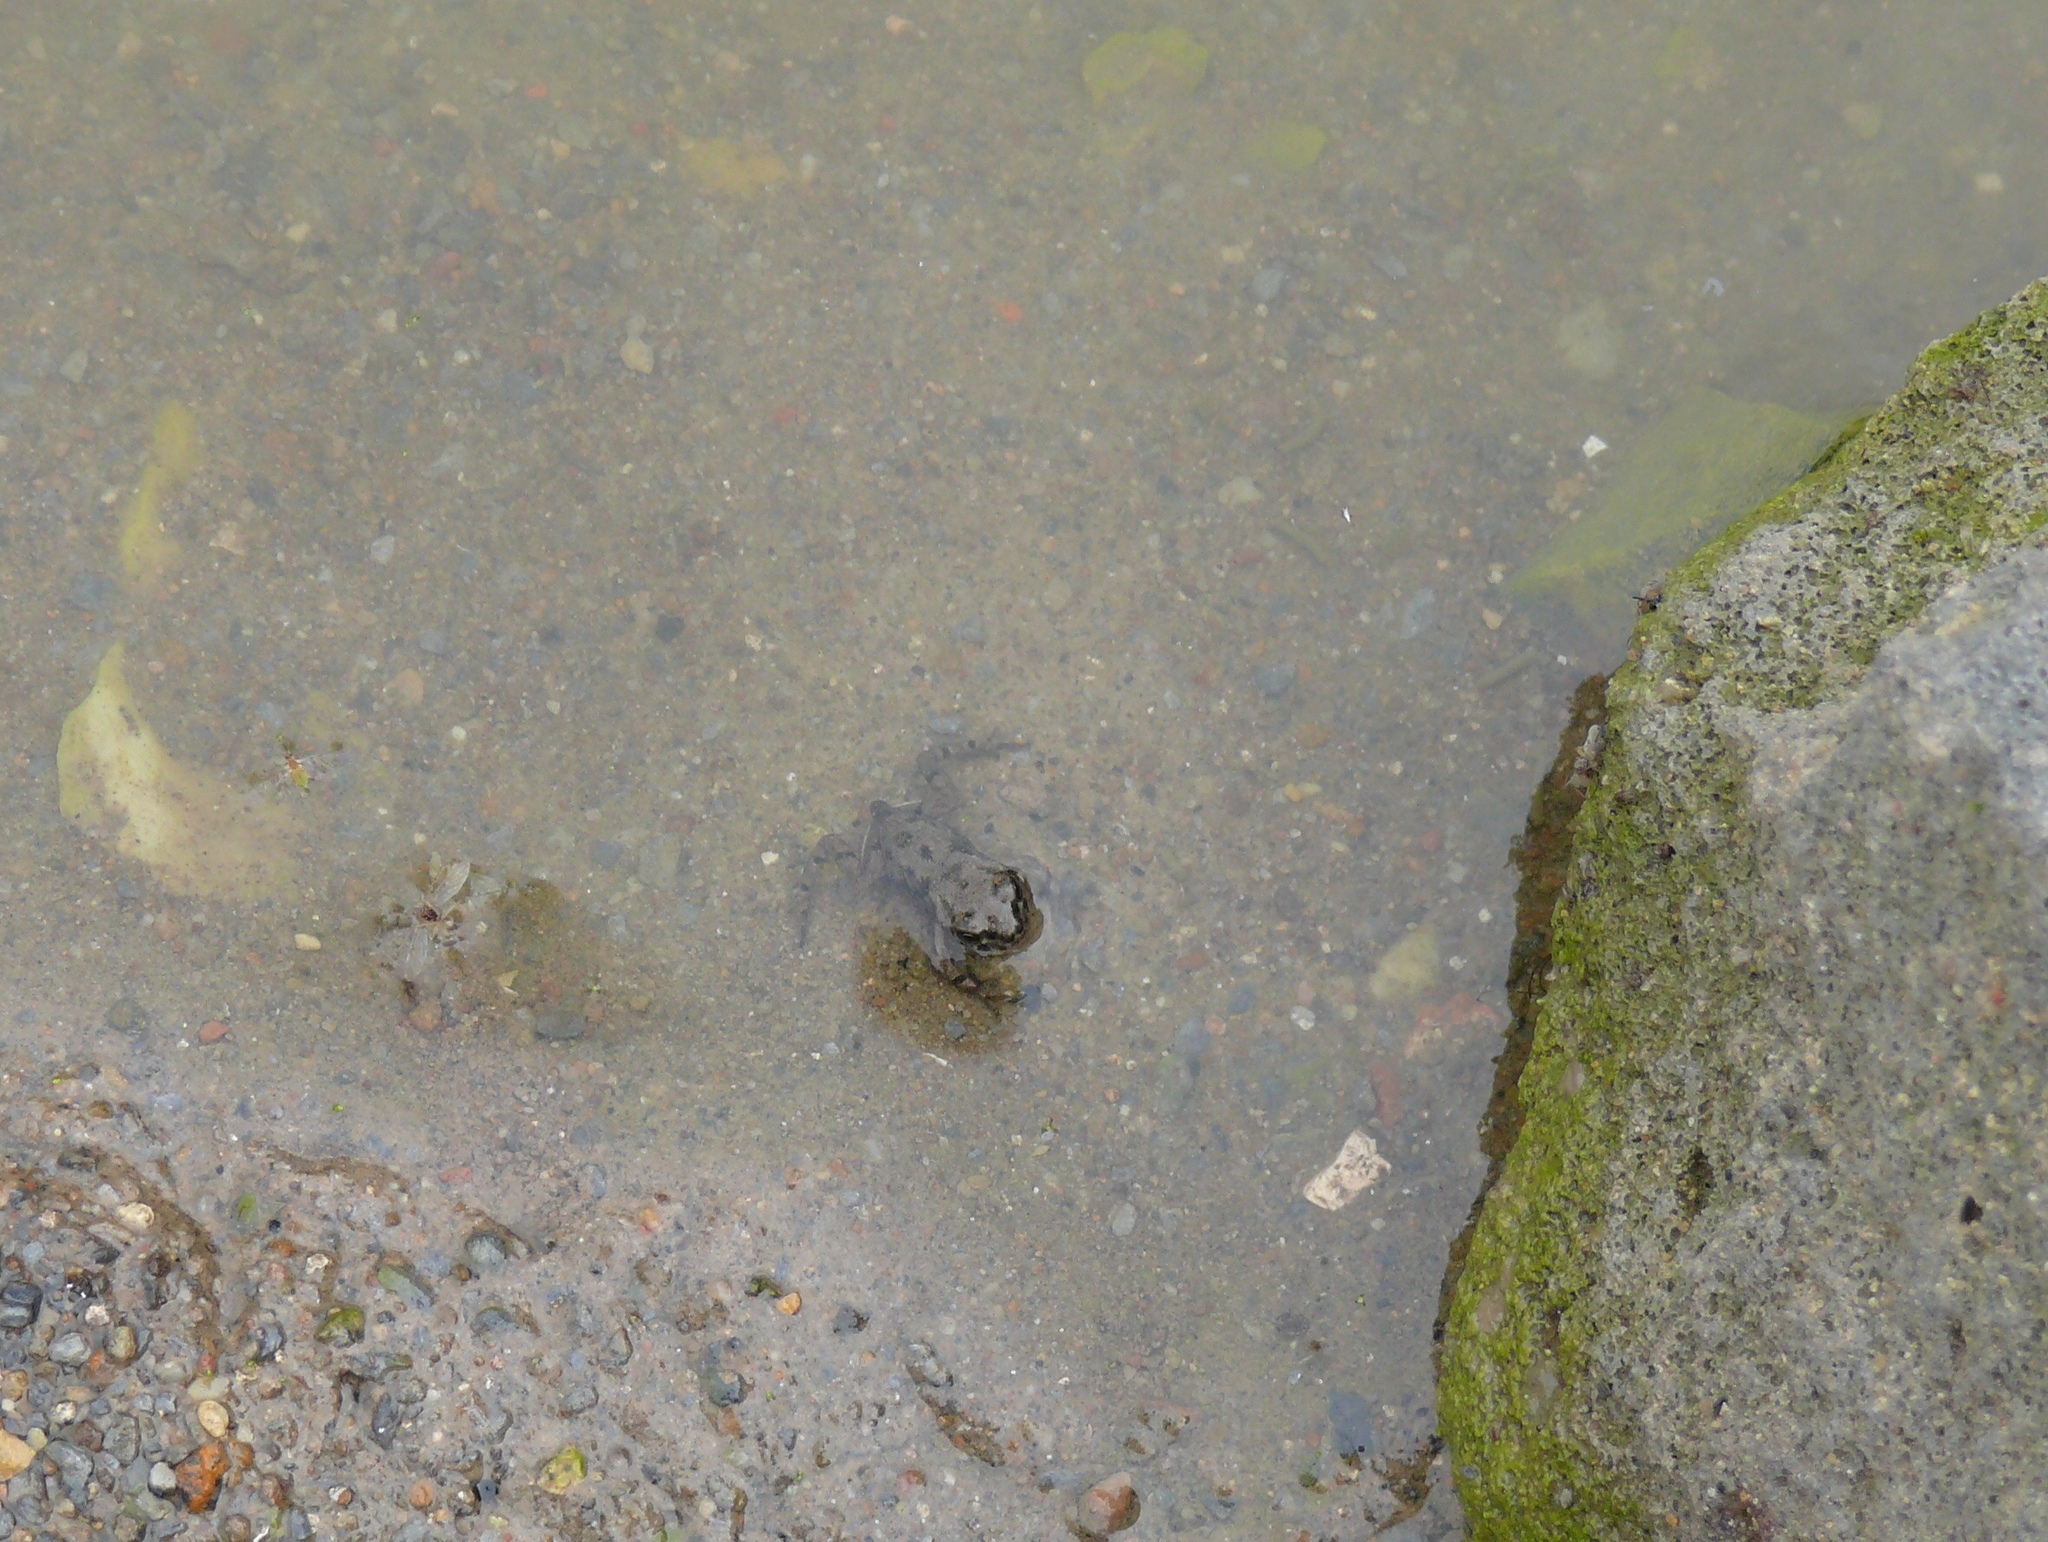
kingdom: Animalia
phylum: Chordata
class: Amphibia
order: Anura
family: Bufonidae
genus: Bufotes
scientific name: Bufotes viridis
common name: European green toad
